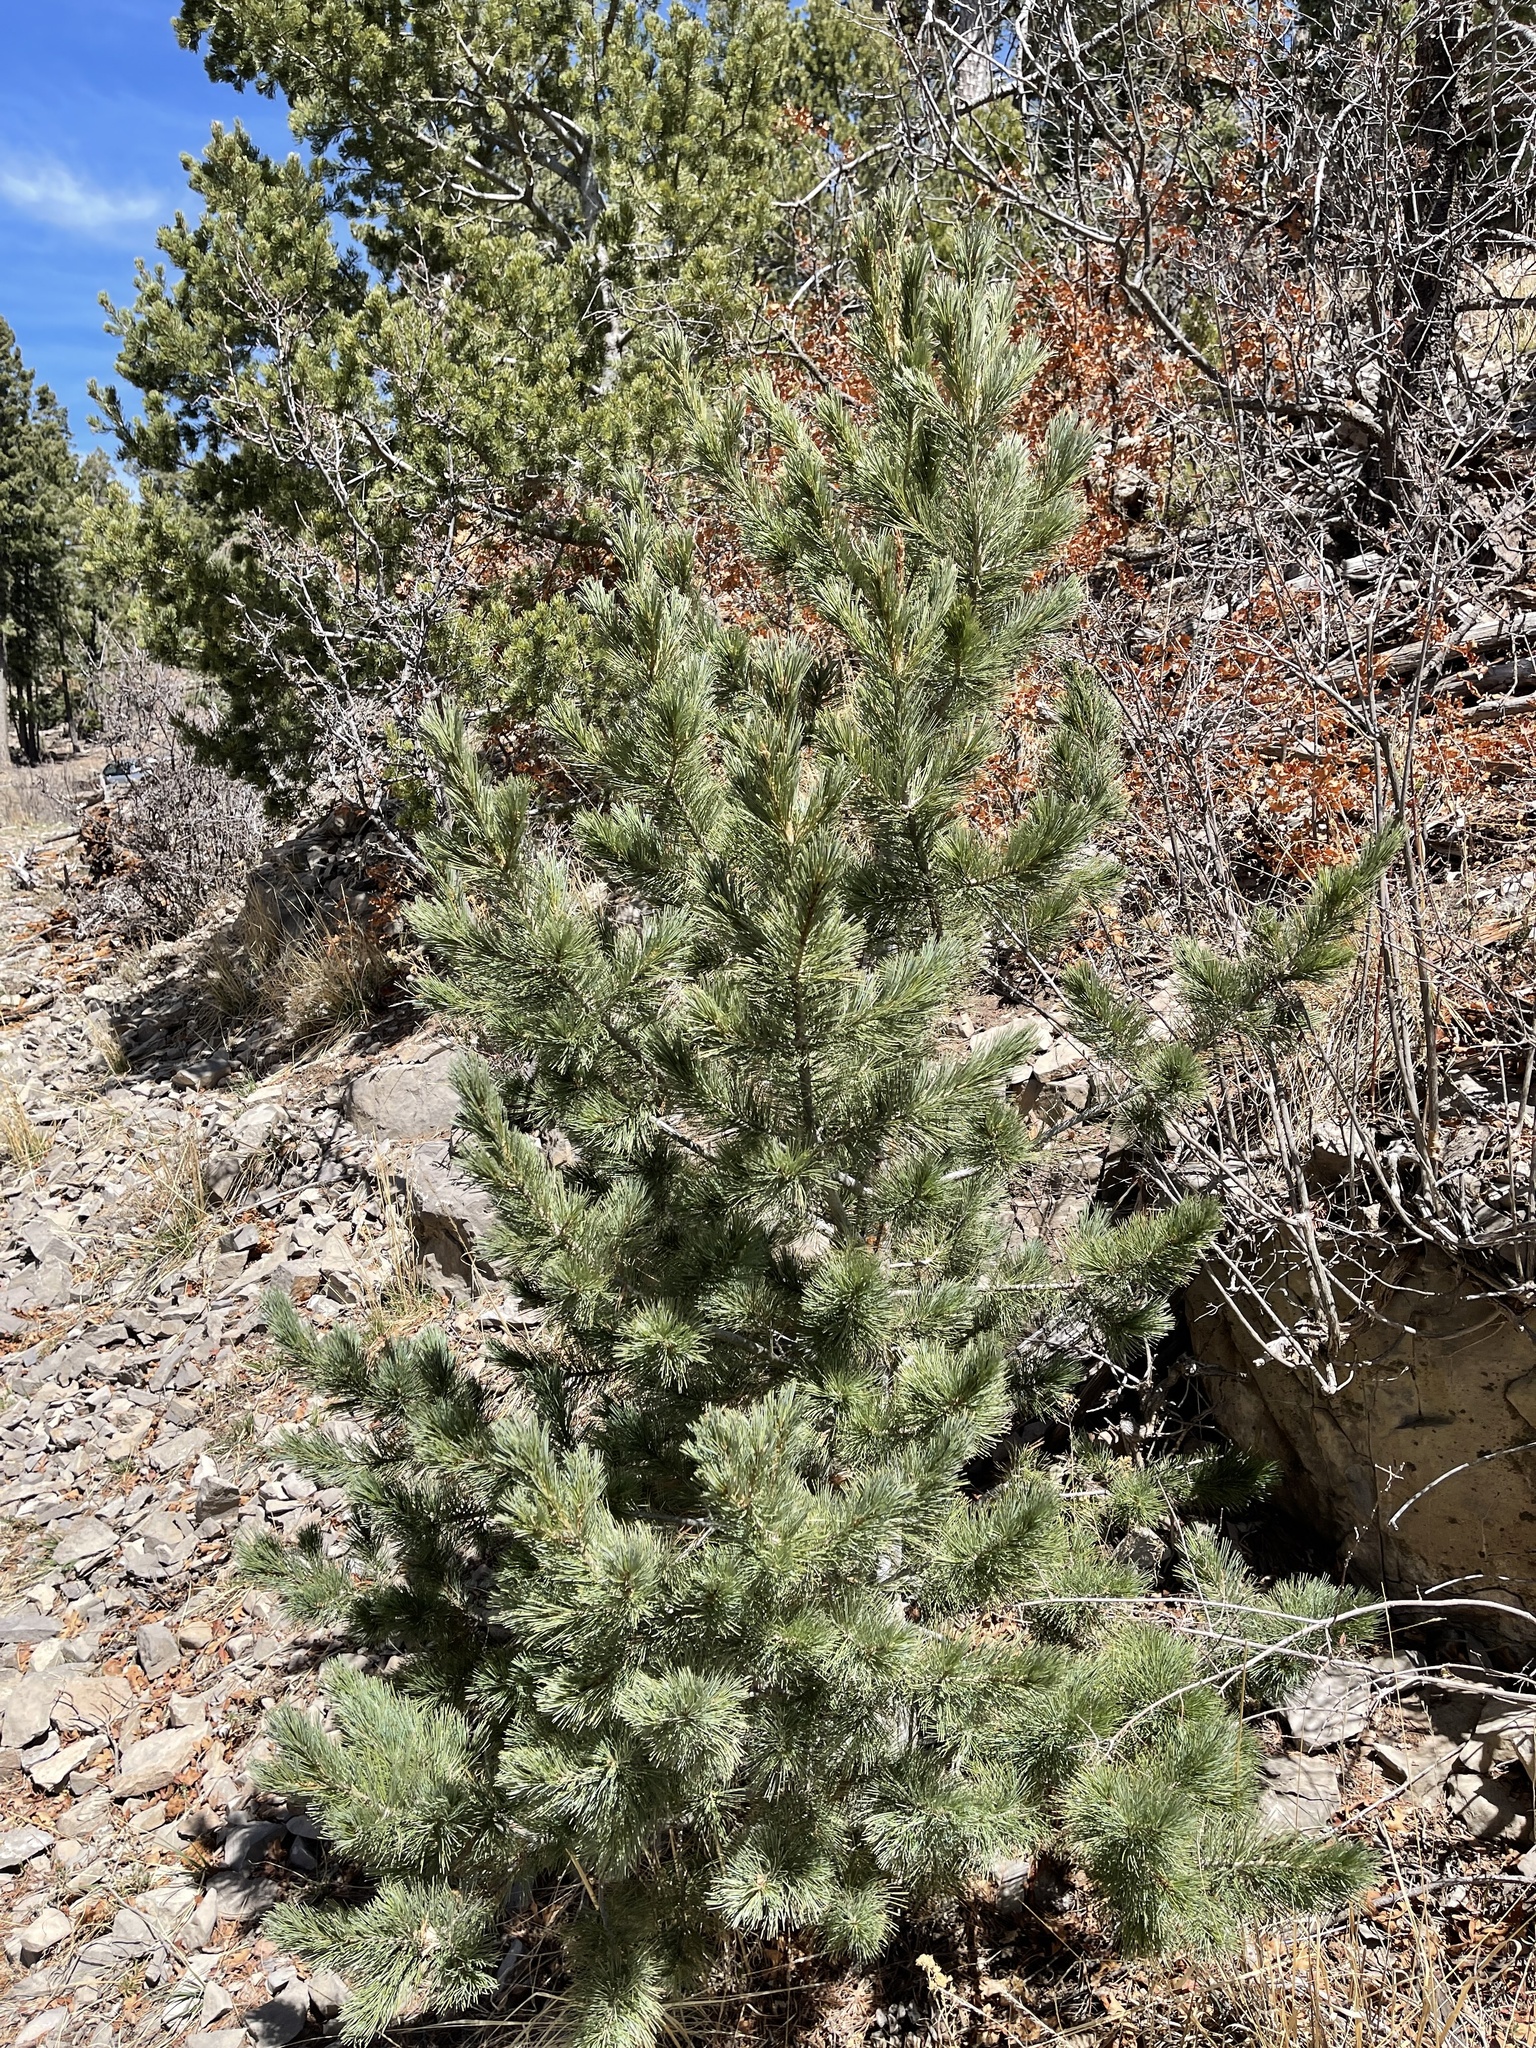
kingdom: Plantae
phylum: Tracheophyta
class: Pinopsida
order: Pinales
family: Pinaceae
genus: Pinus
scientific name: Pinus strobiformis
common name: Southwestern white pine
